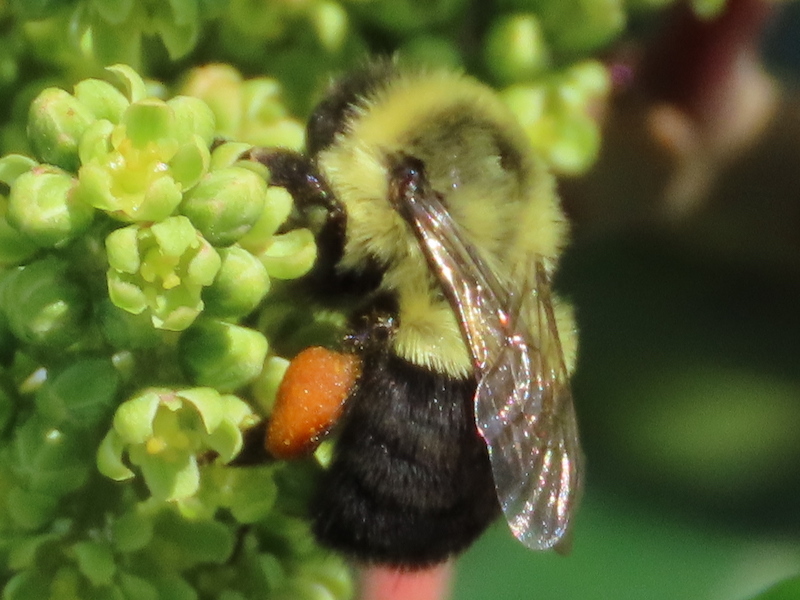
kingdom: Animalia
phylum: Arthropoda
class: Insecta
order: Hymenoptera
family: Apidae
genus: Bombus
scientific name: Bombus impatiens
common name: Common eastern bumble bee
